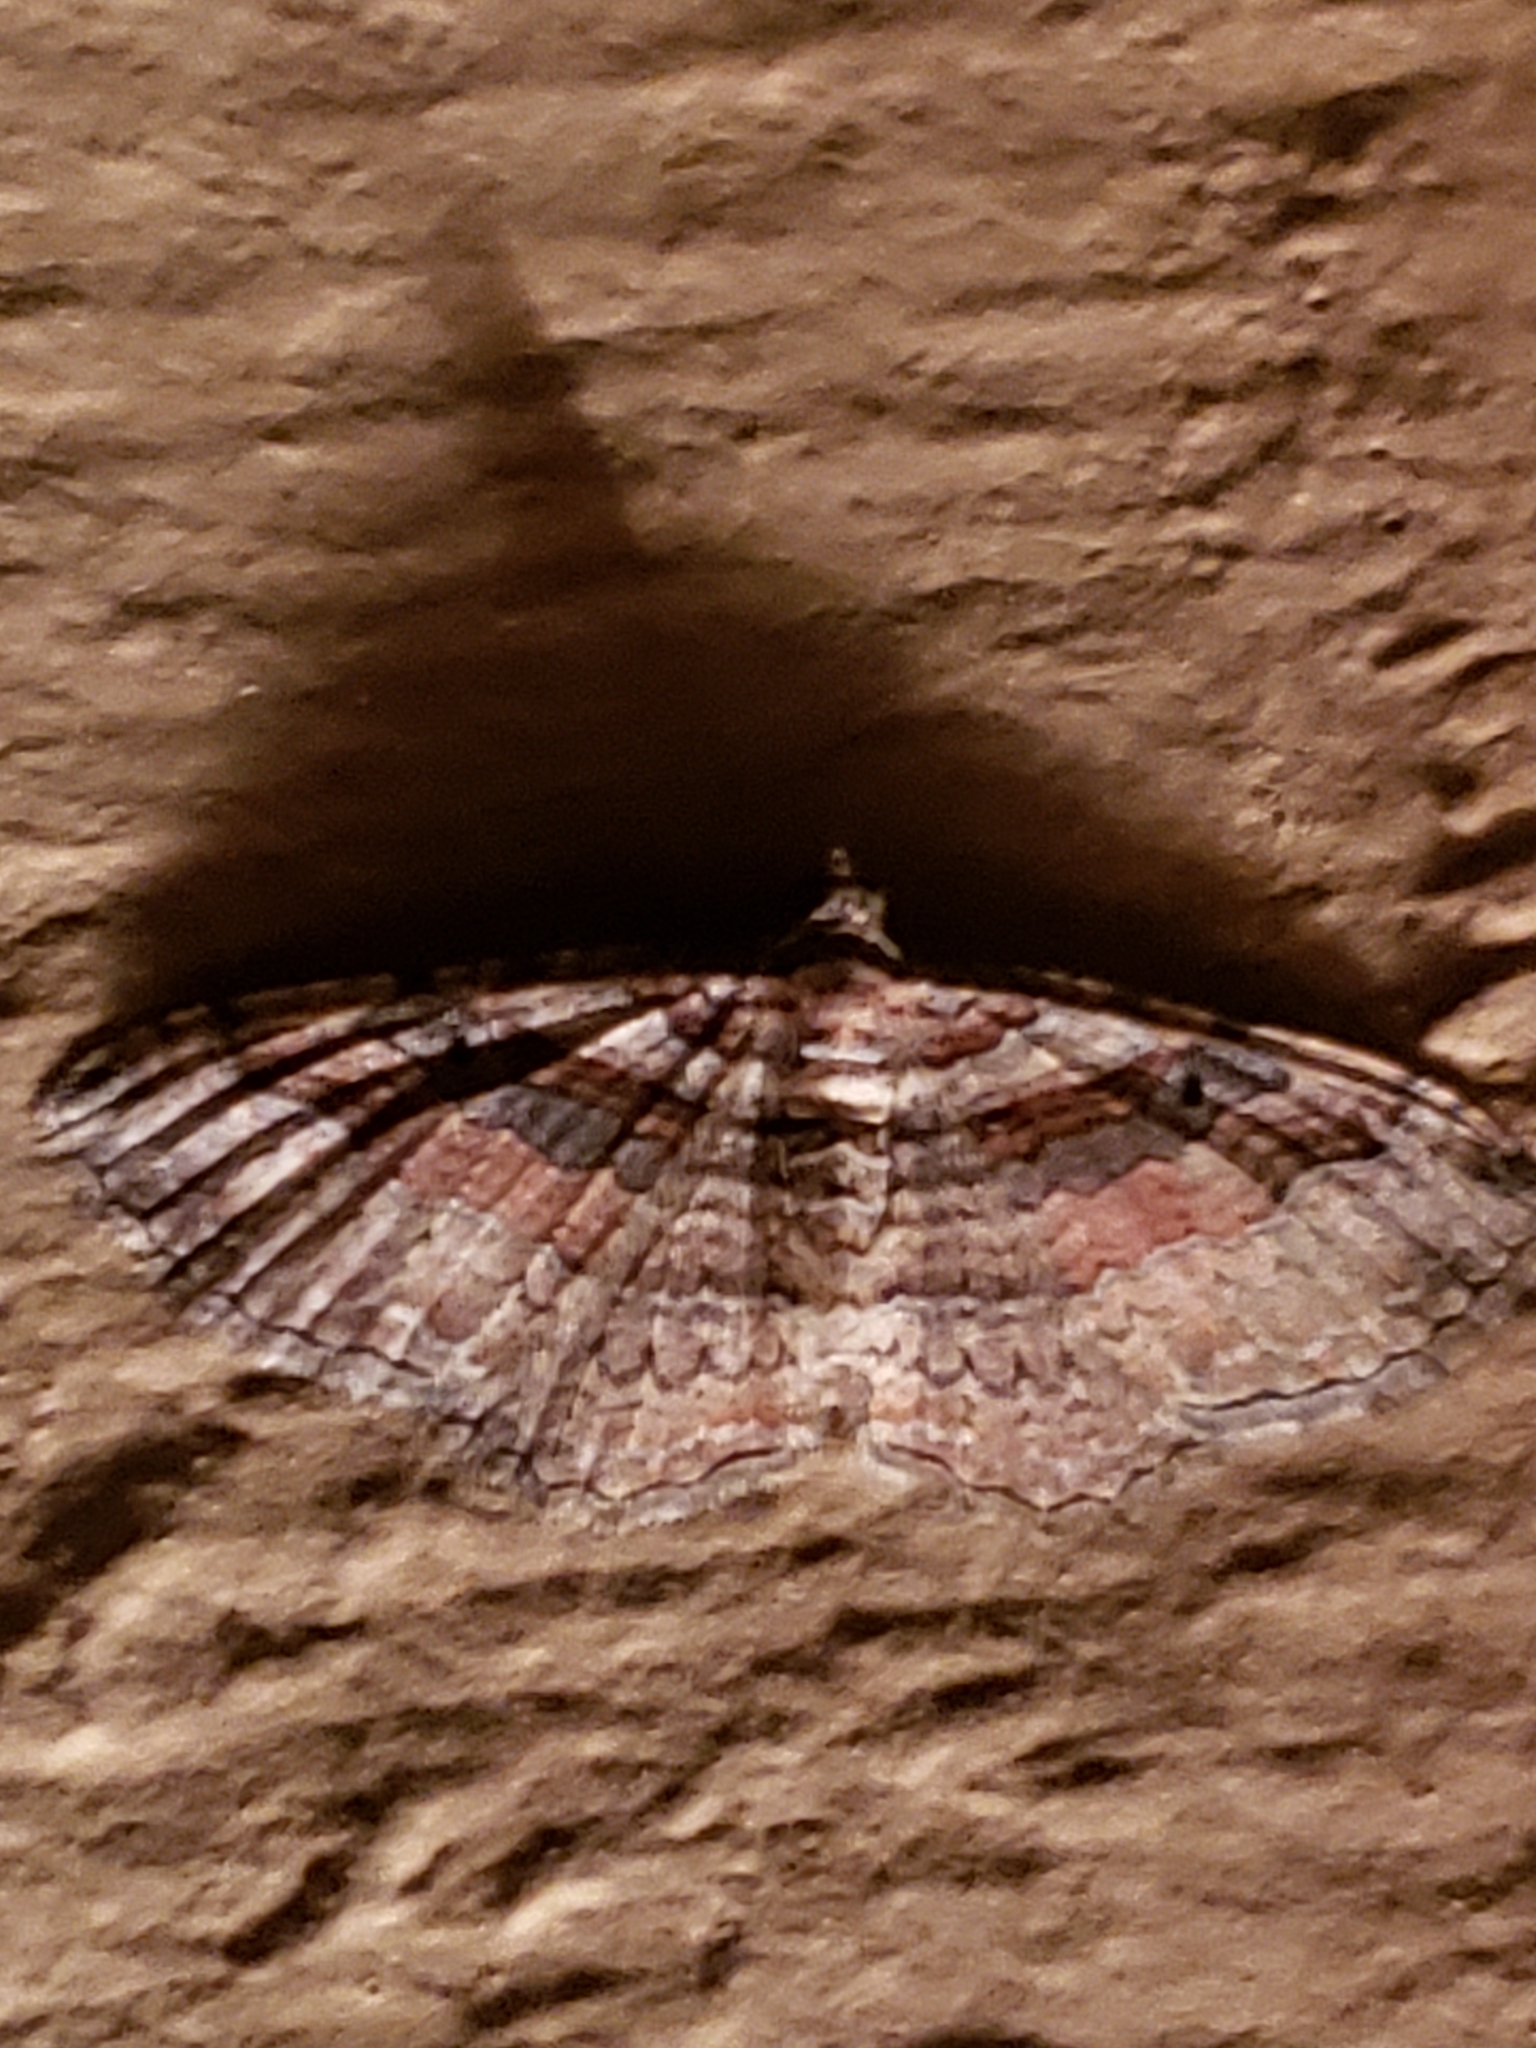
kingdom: Animalia
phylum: Arthropoda
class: Insecta
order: Lepidoptera
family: Geometridae
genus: Costaconvexa
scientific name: Costaconvexa centrostrigaria
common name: Bent-line carpet
